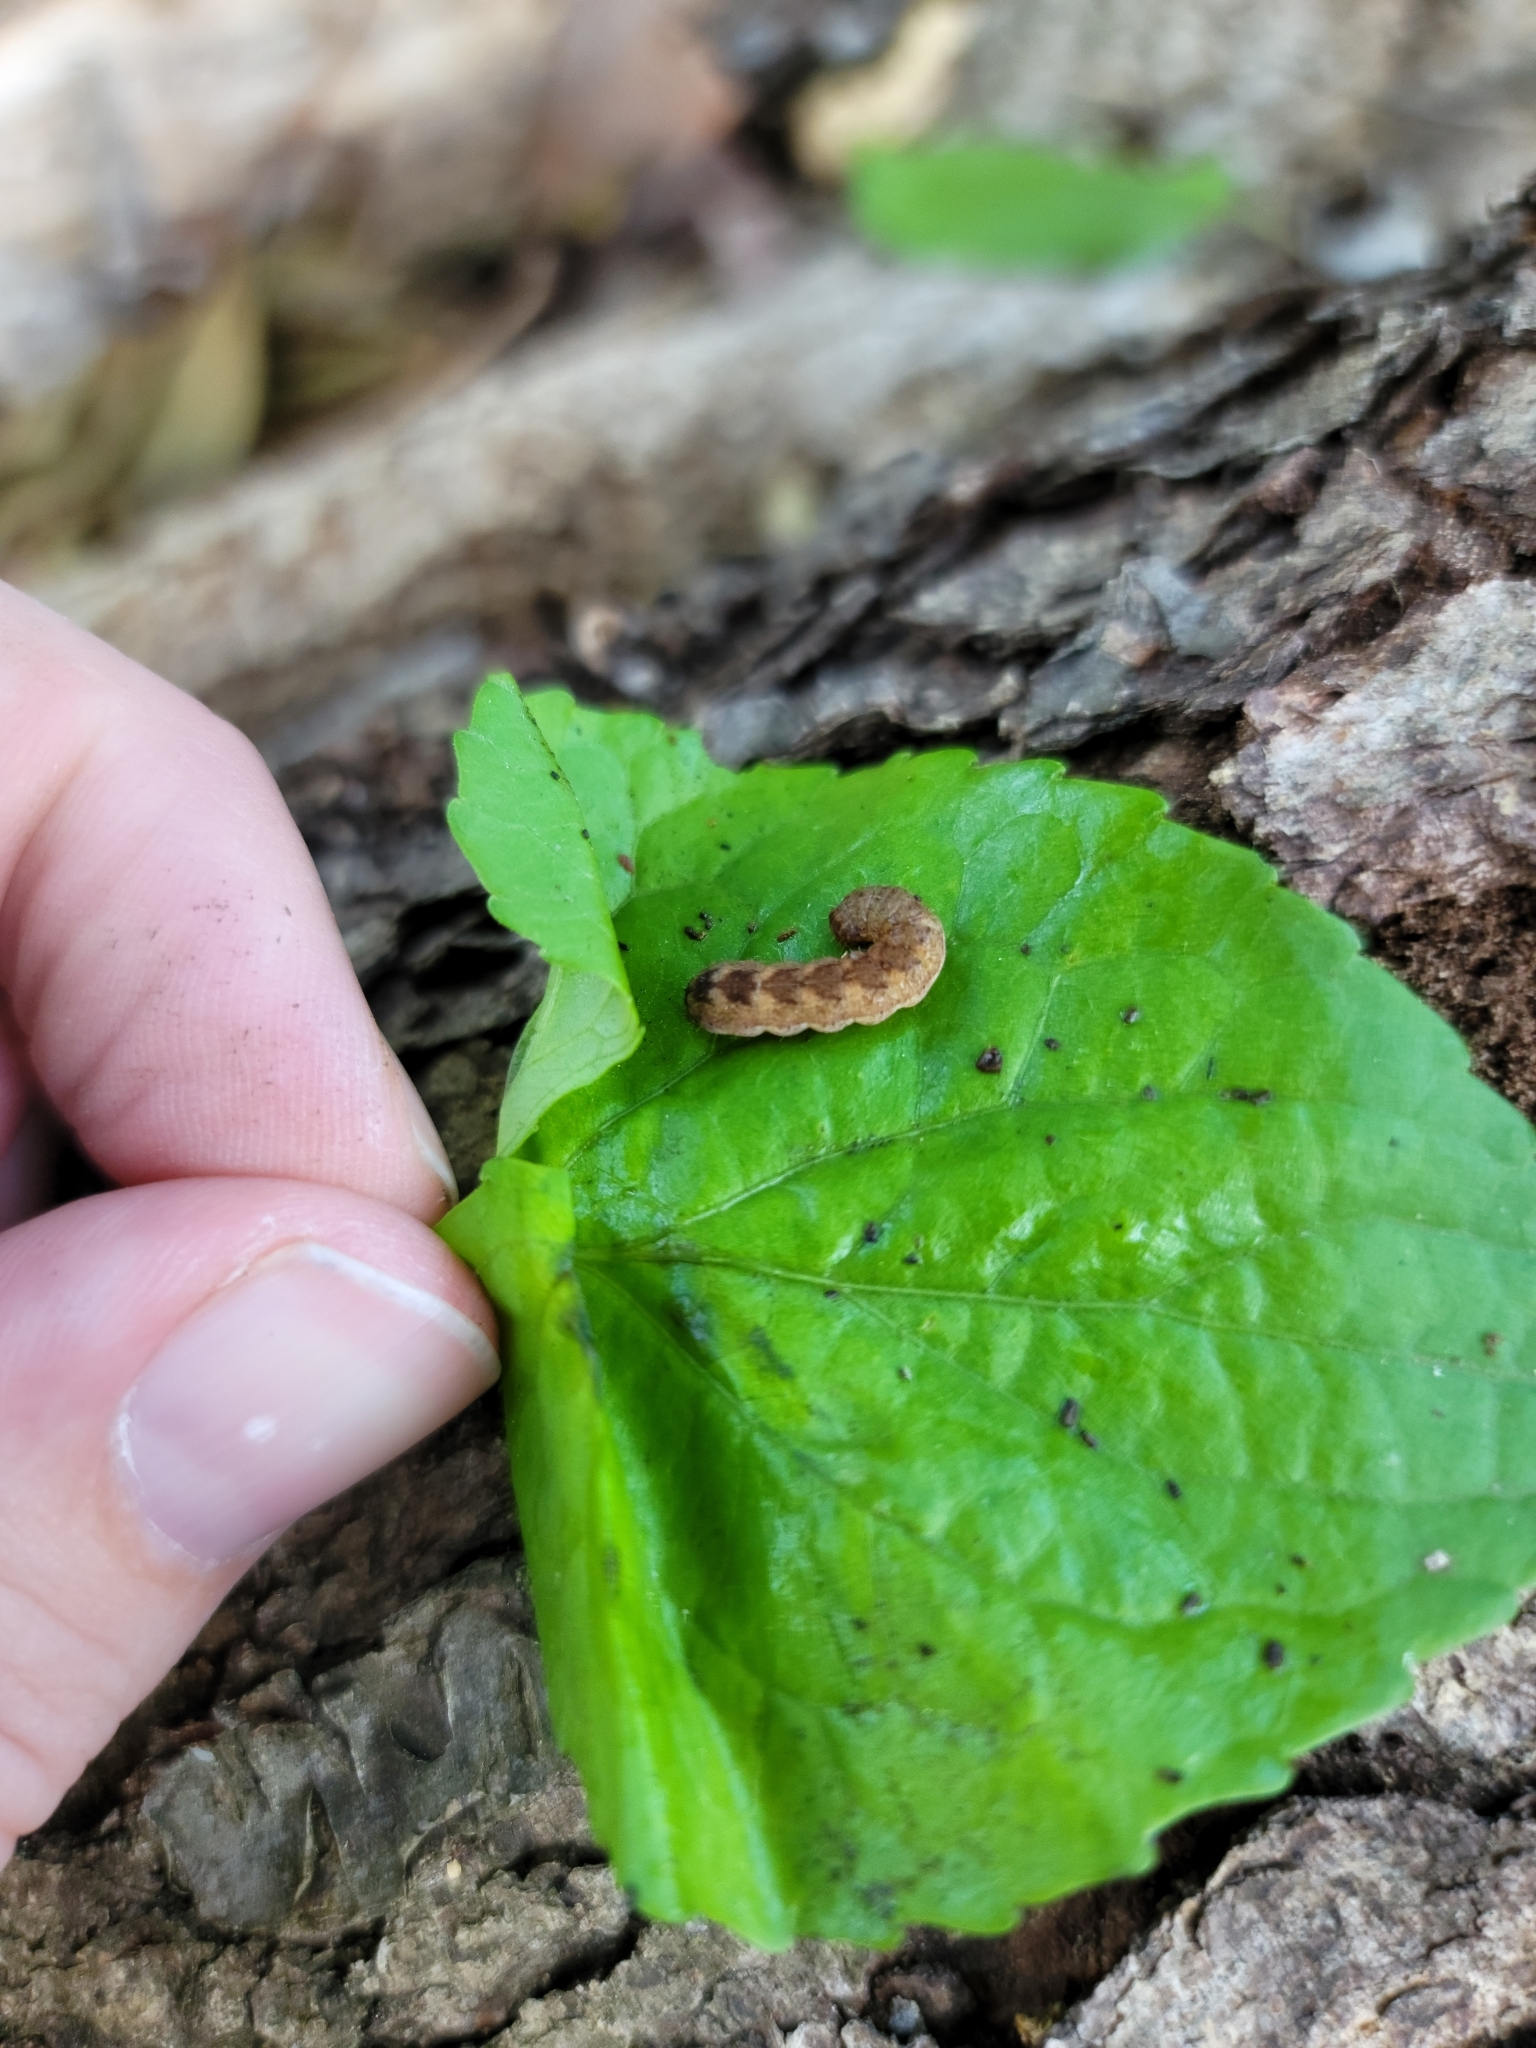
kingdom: Animalia
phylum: Arthropoda
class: Insecta
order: Lepidoptera
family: Noctuidae
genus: Agrochola
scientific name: Agrochola bicolorago
